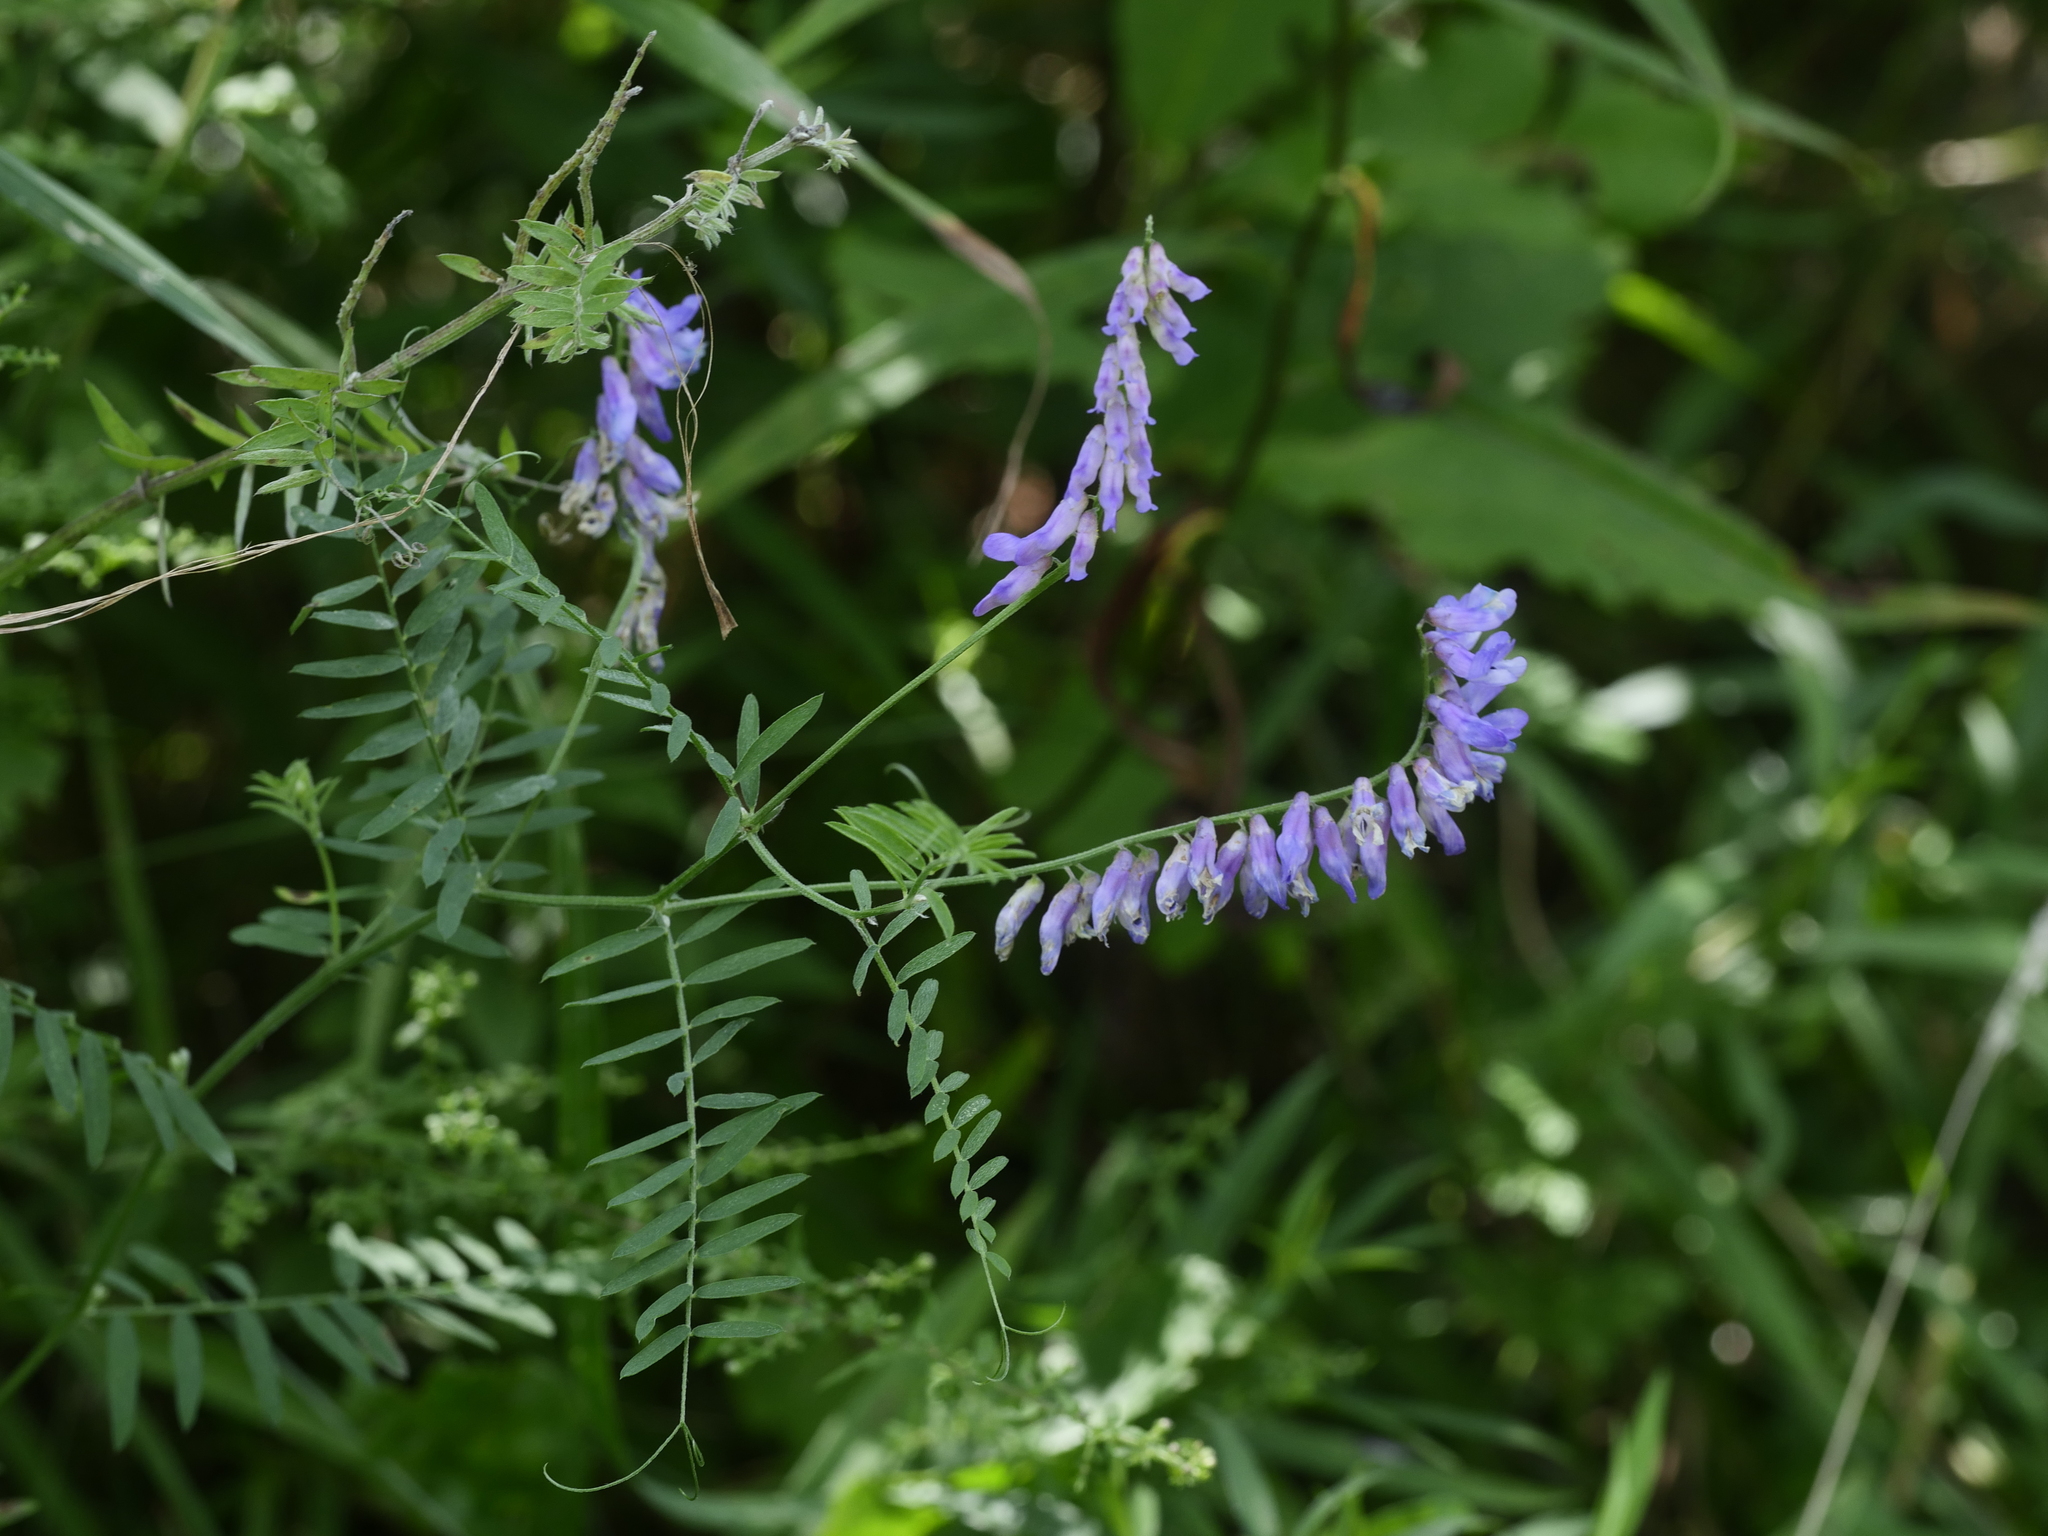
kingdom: Plantae
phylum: Tracheophyta
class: Magnoliopsida
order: Fabales
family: Fabaceae
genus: Vicia
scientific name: Vicia cracca
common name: Bird vetch
